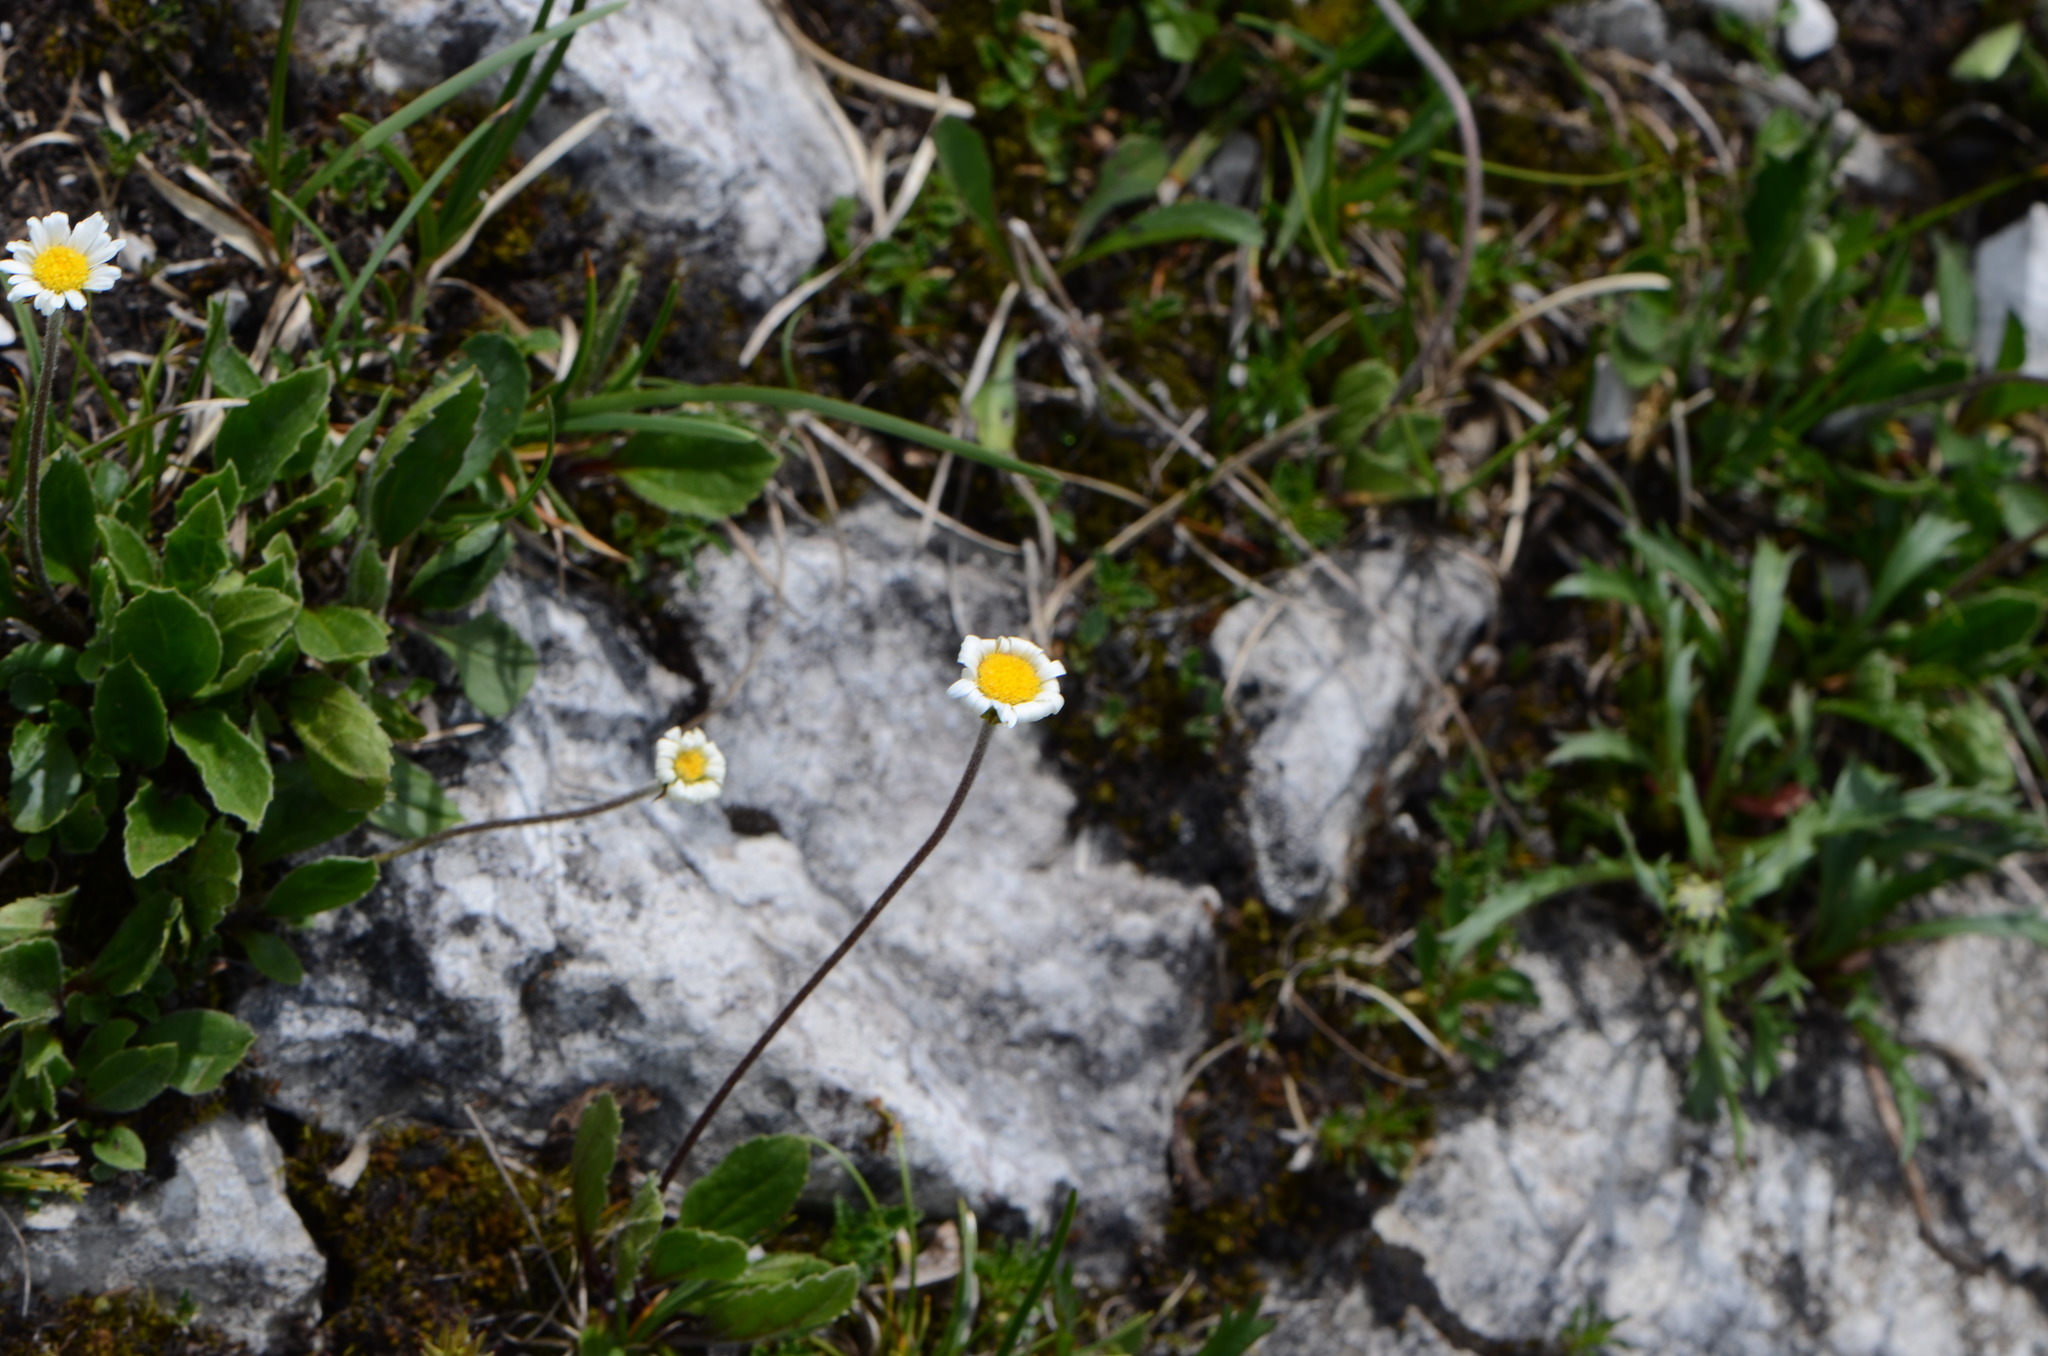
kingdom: Plantae
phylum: Tracheophyta
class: Magnoliopsida
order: Asterales
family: Asteraceae
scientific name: Asteraceae
